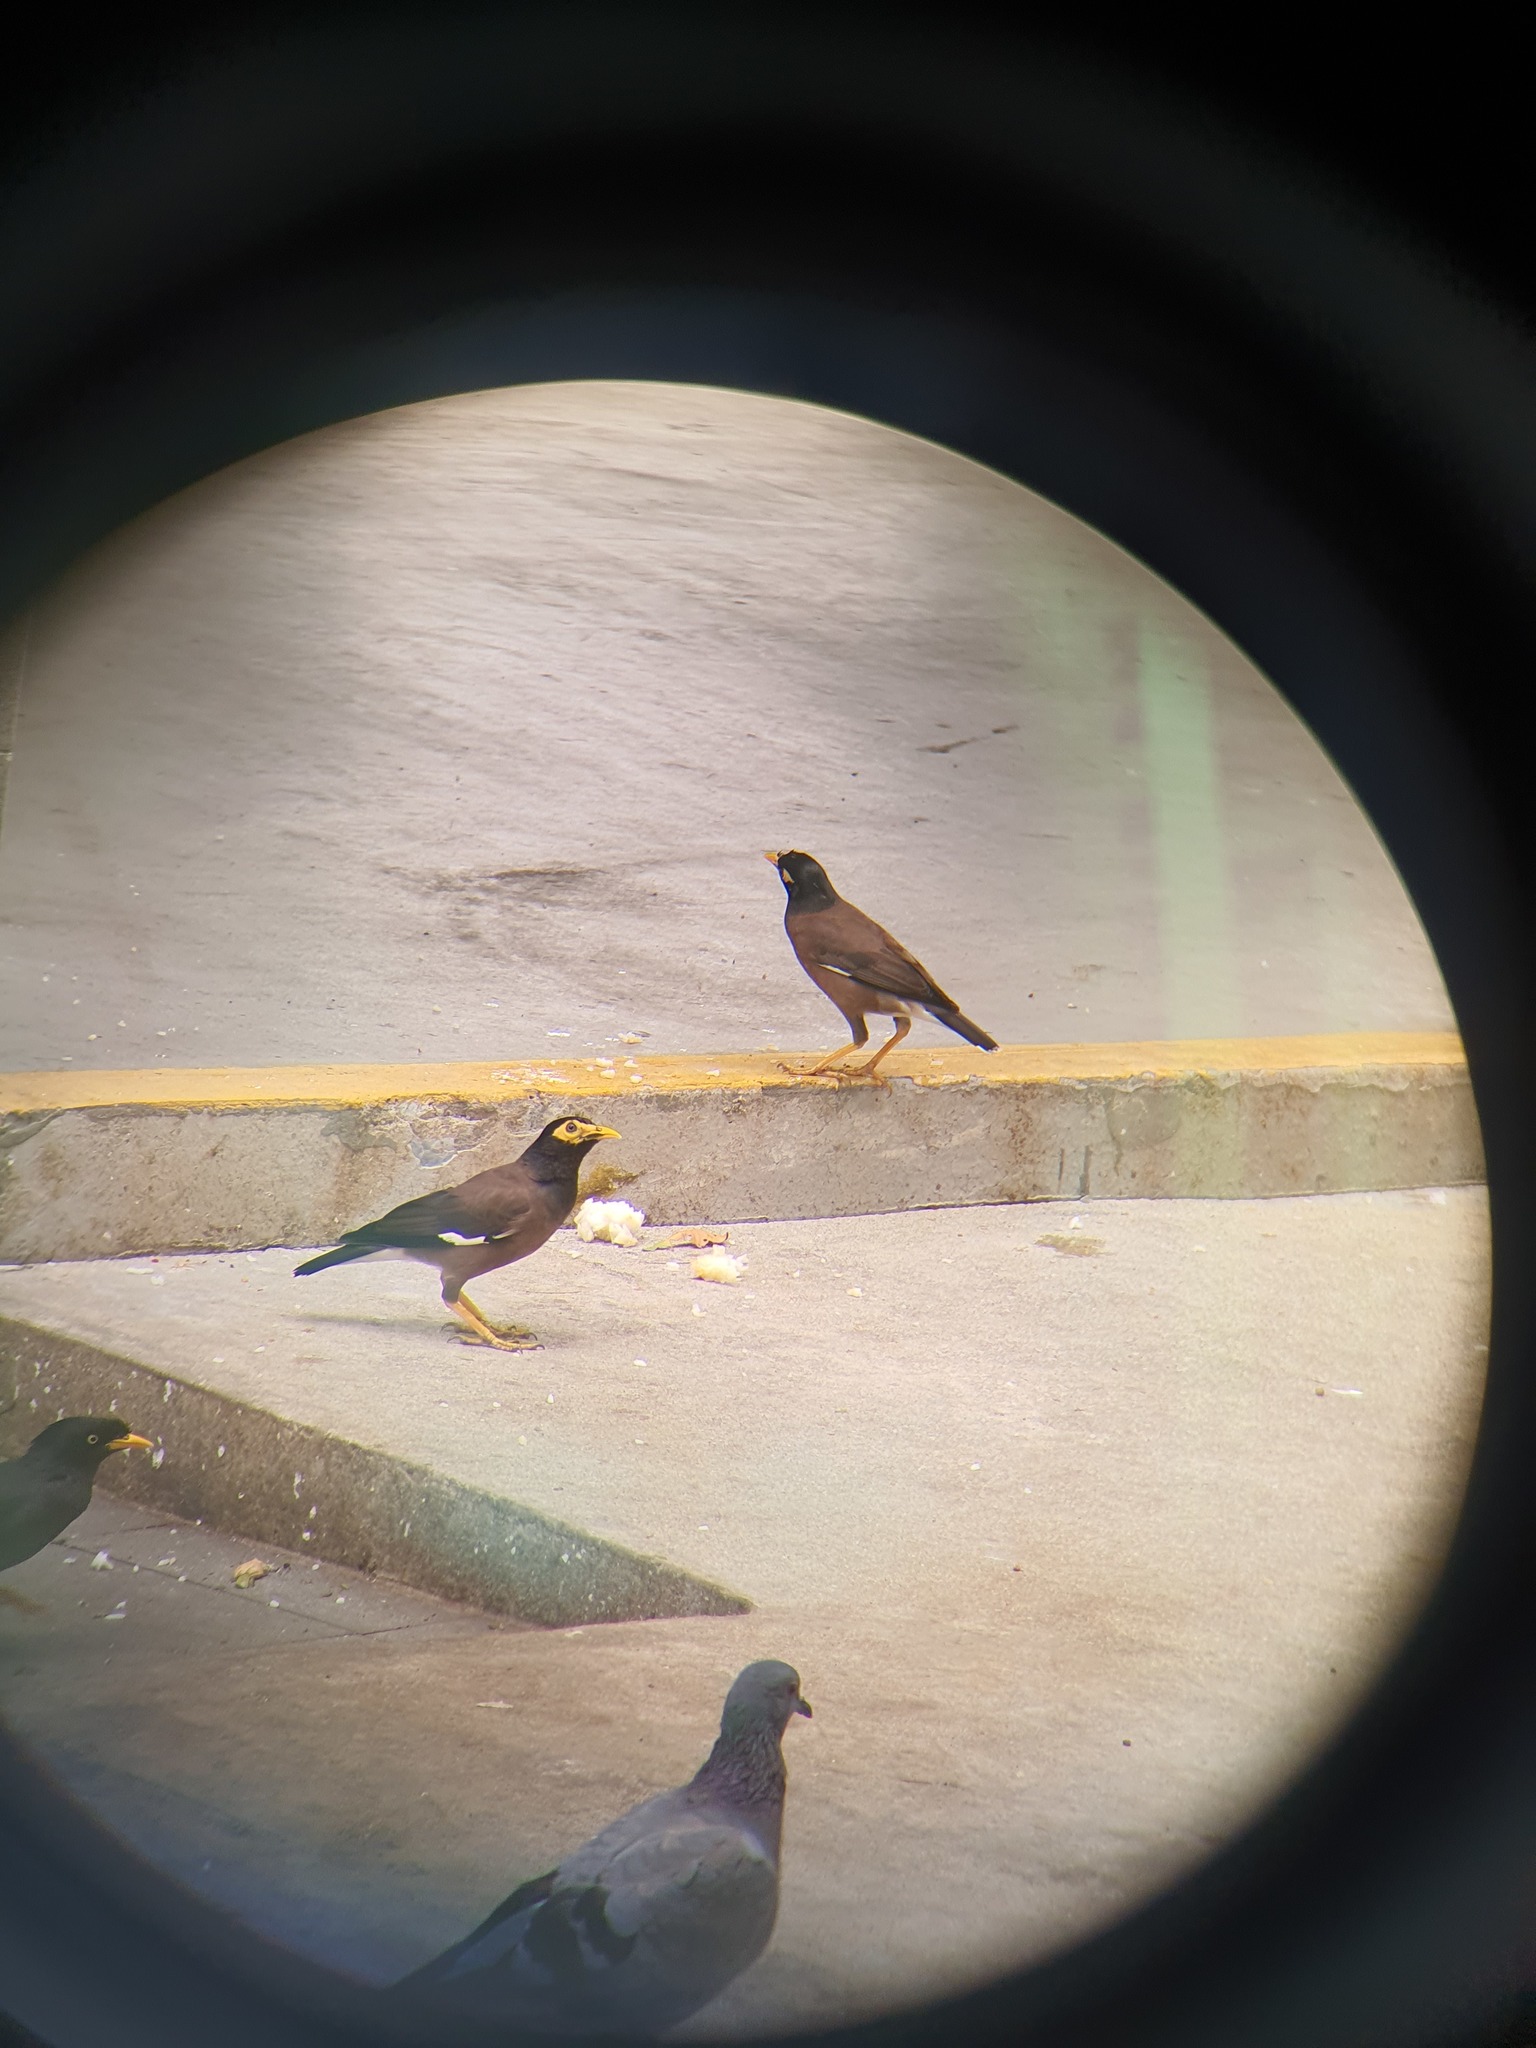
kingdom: Animalia
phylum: Chordata
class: Aves
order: Passeriformes
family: Sturnidae
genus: Acridotheres
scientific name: Acridotheres tristis
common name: Common myna
